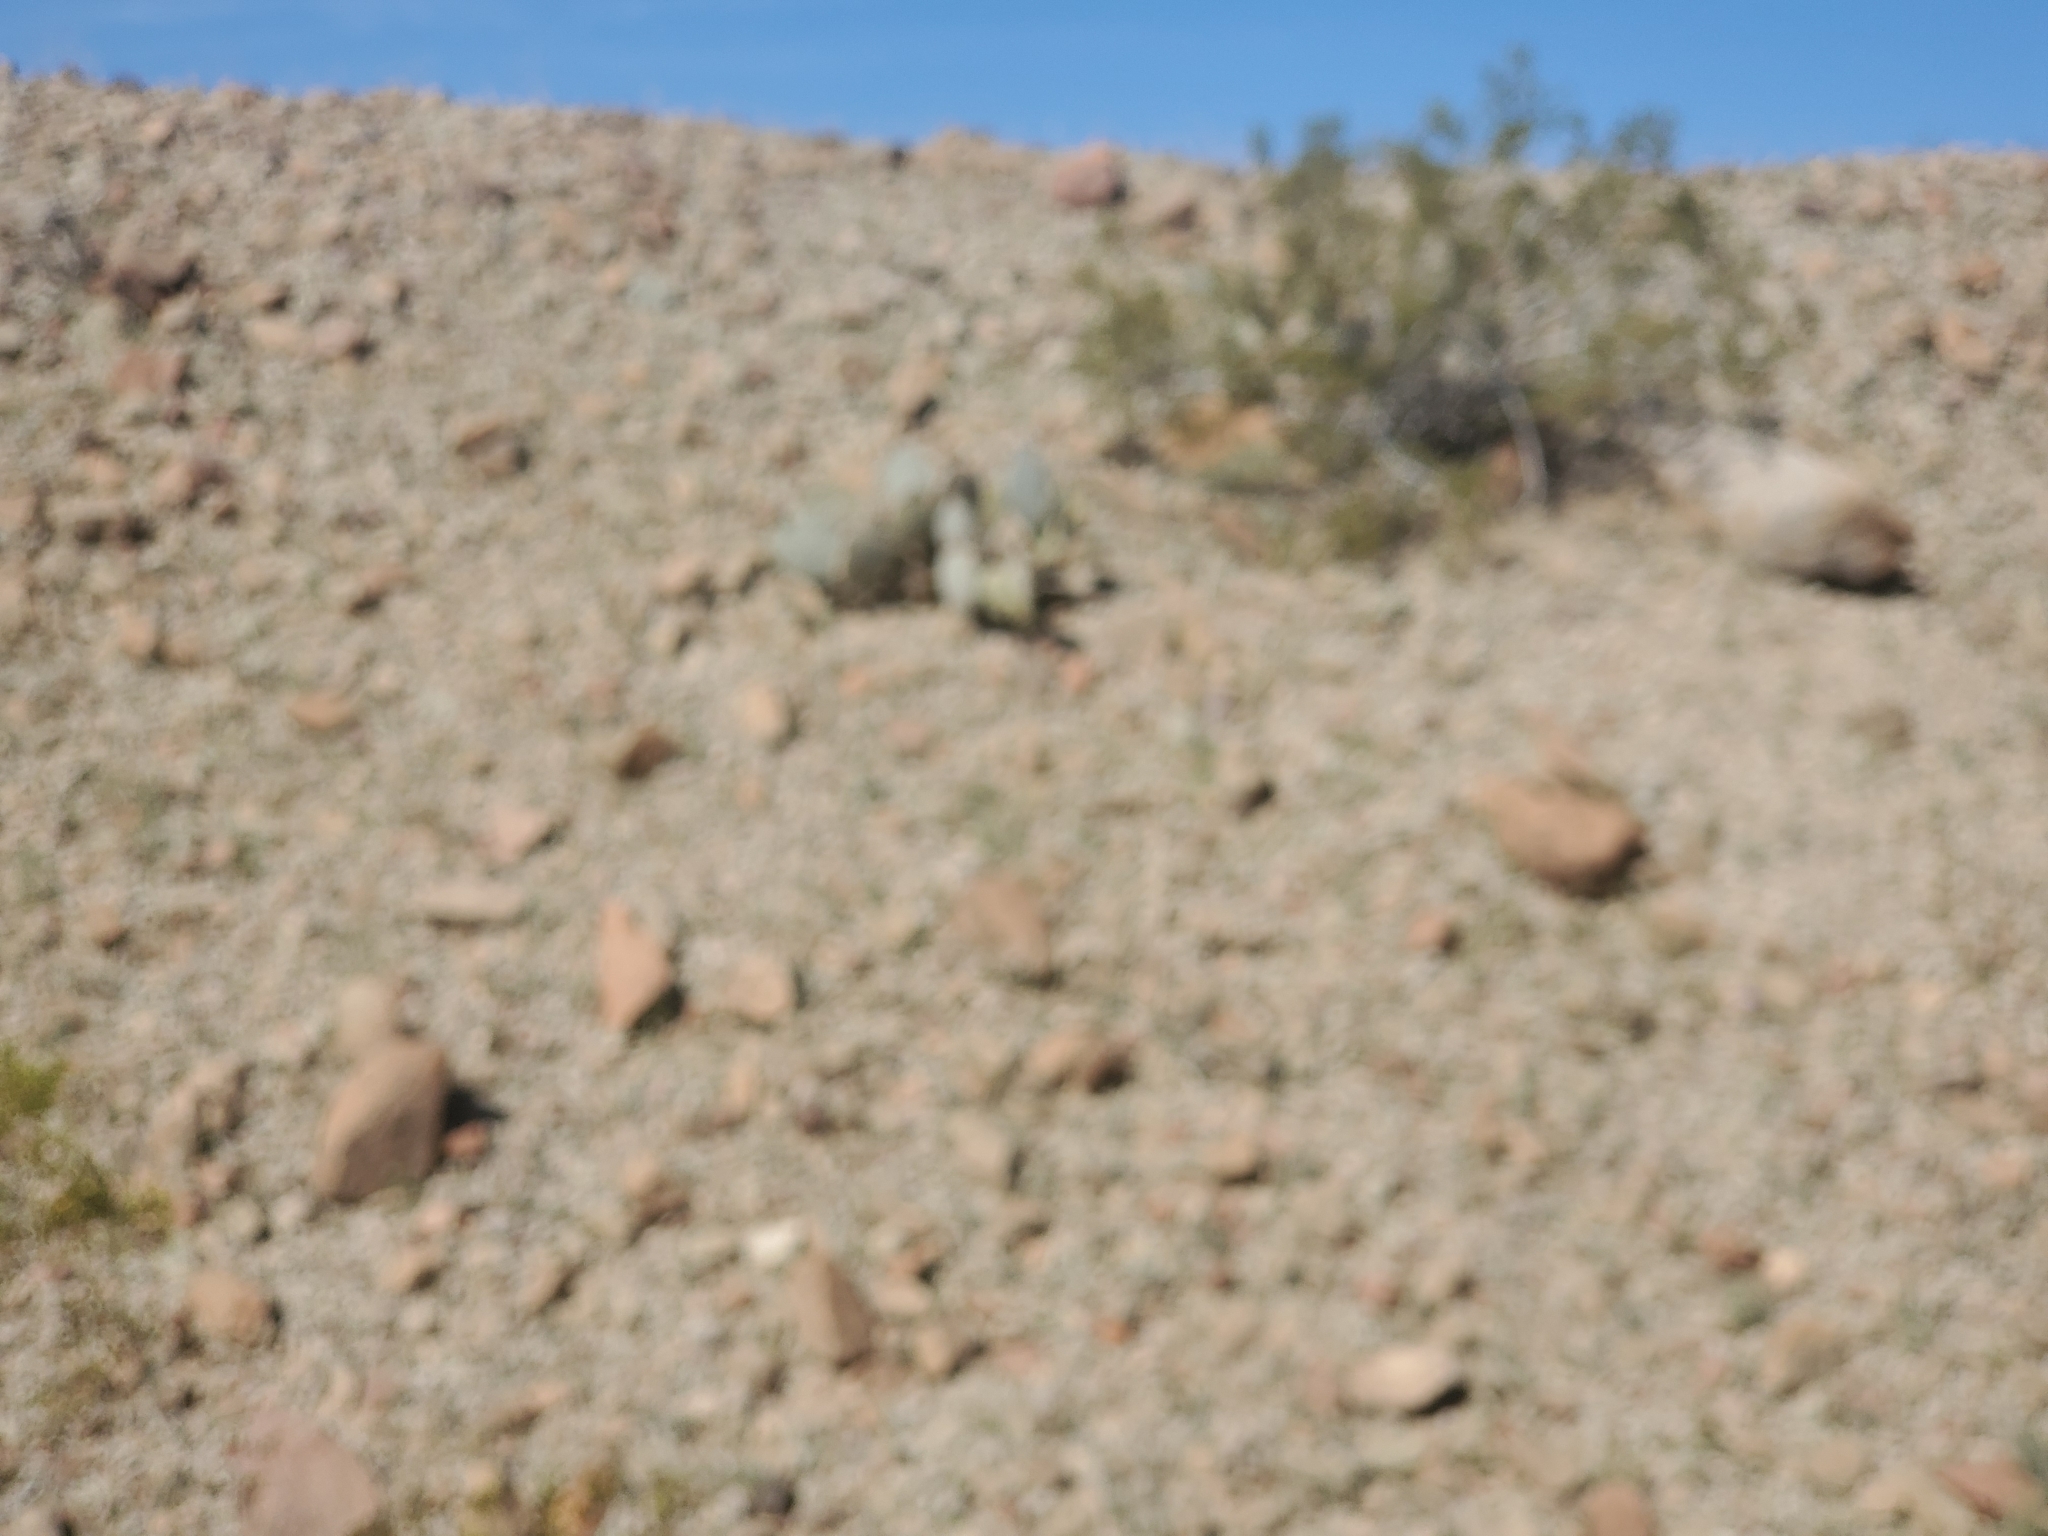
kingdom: Plantae
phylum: Tracheophyta
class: Magnoliopsida
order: Caryophyllales
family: Cactaceae
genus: Opuntia
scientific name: Opuntia basilaris
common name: Beavertail prickly-pear
